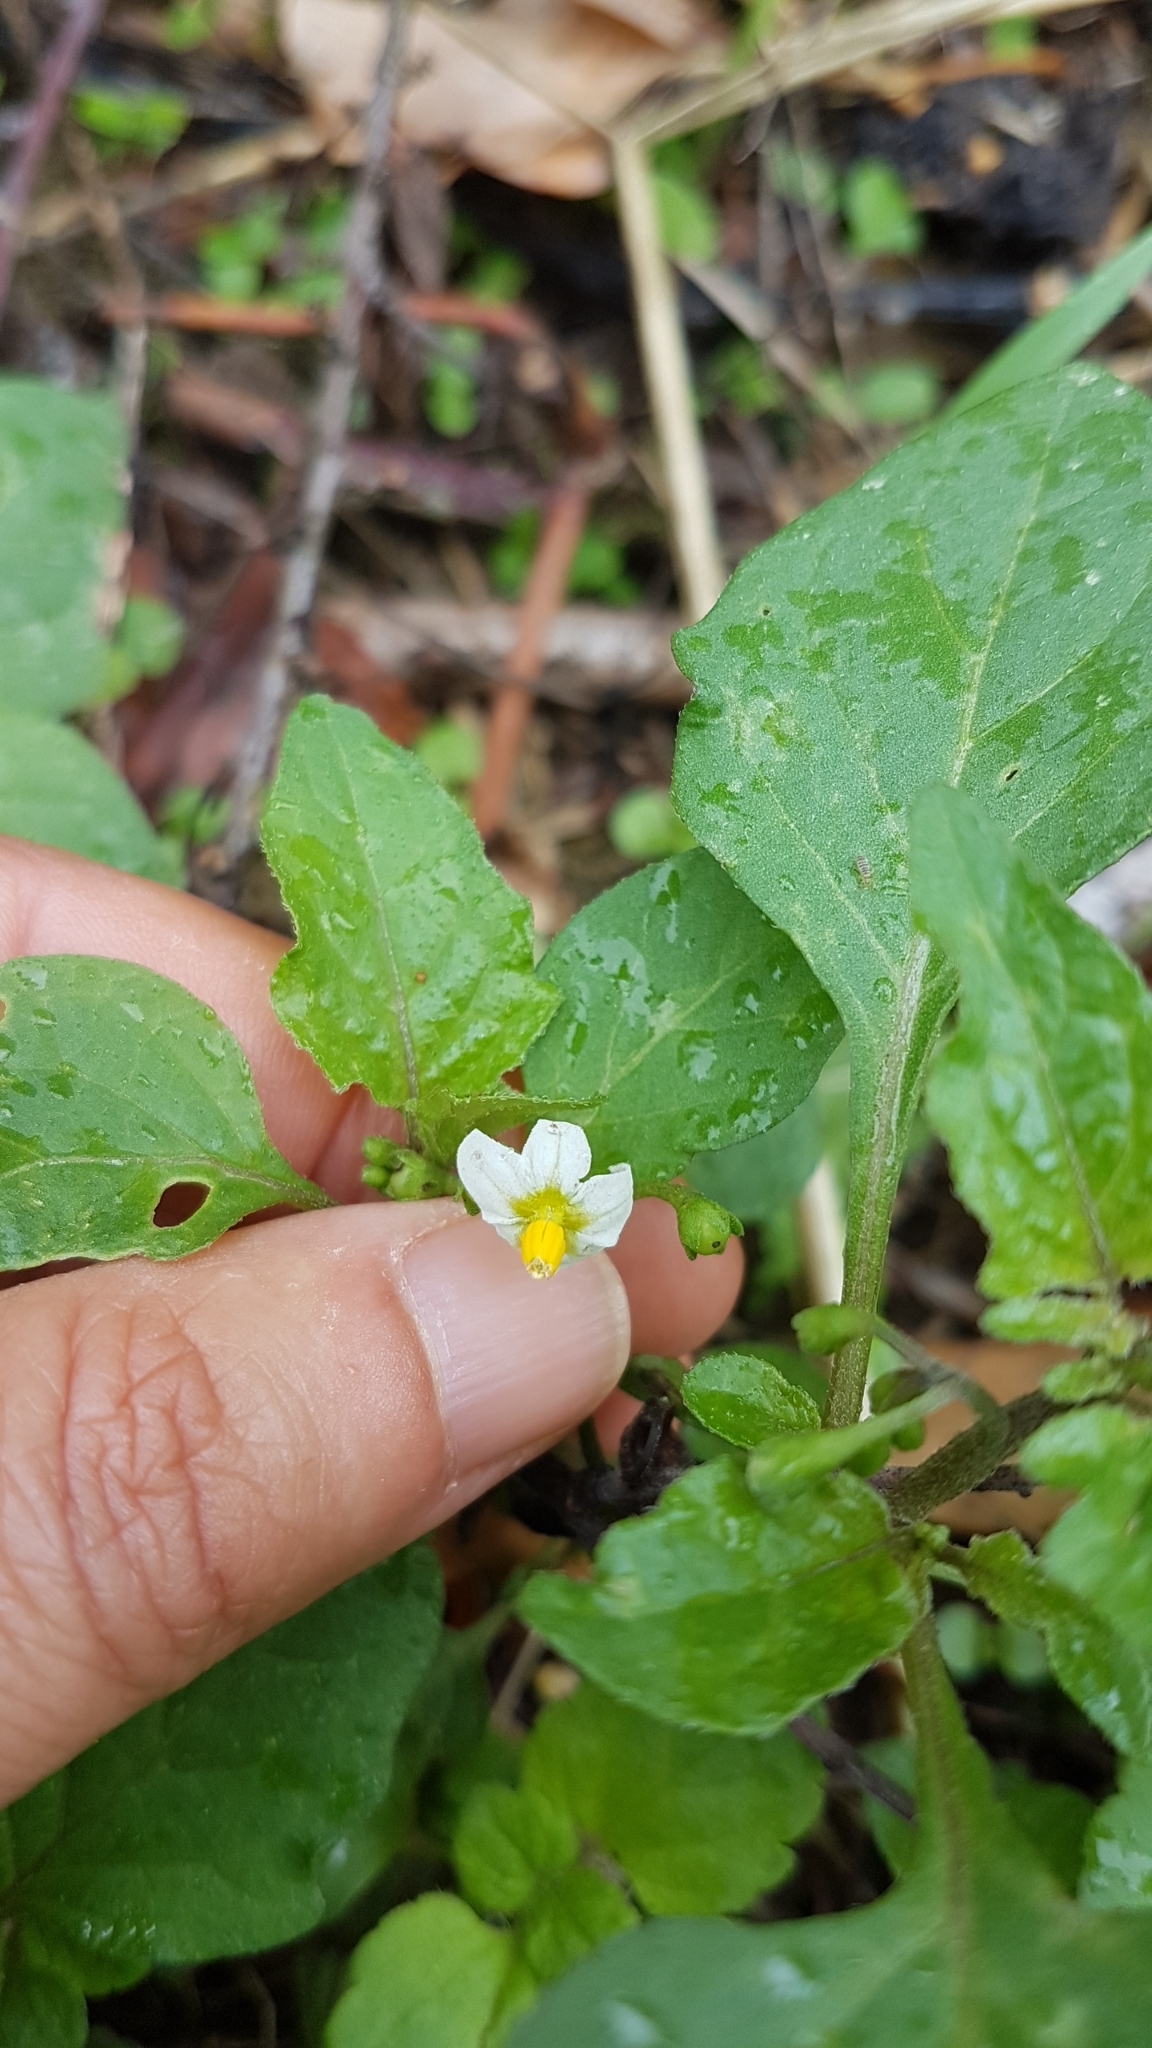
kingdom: Plantae
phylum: Tracheophyta
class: Magnoliopsida
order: Solanales
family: Solanaceae
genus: Solanum
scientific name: Solanum nigrum
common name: Black nightshade
